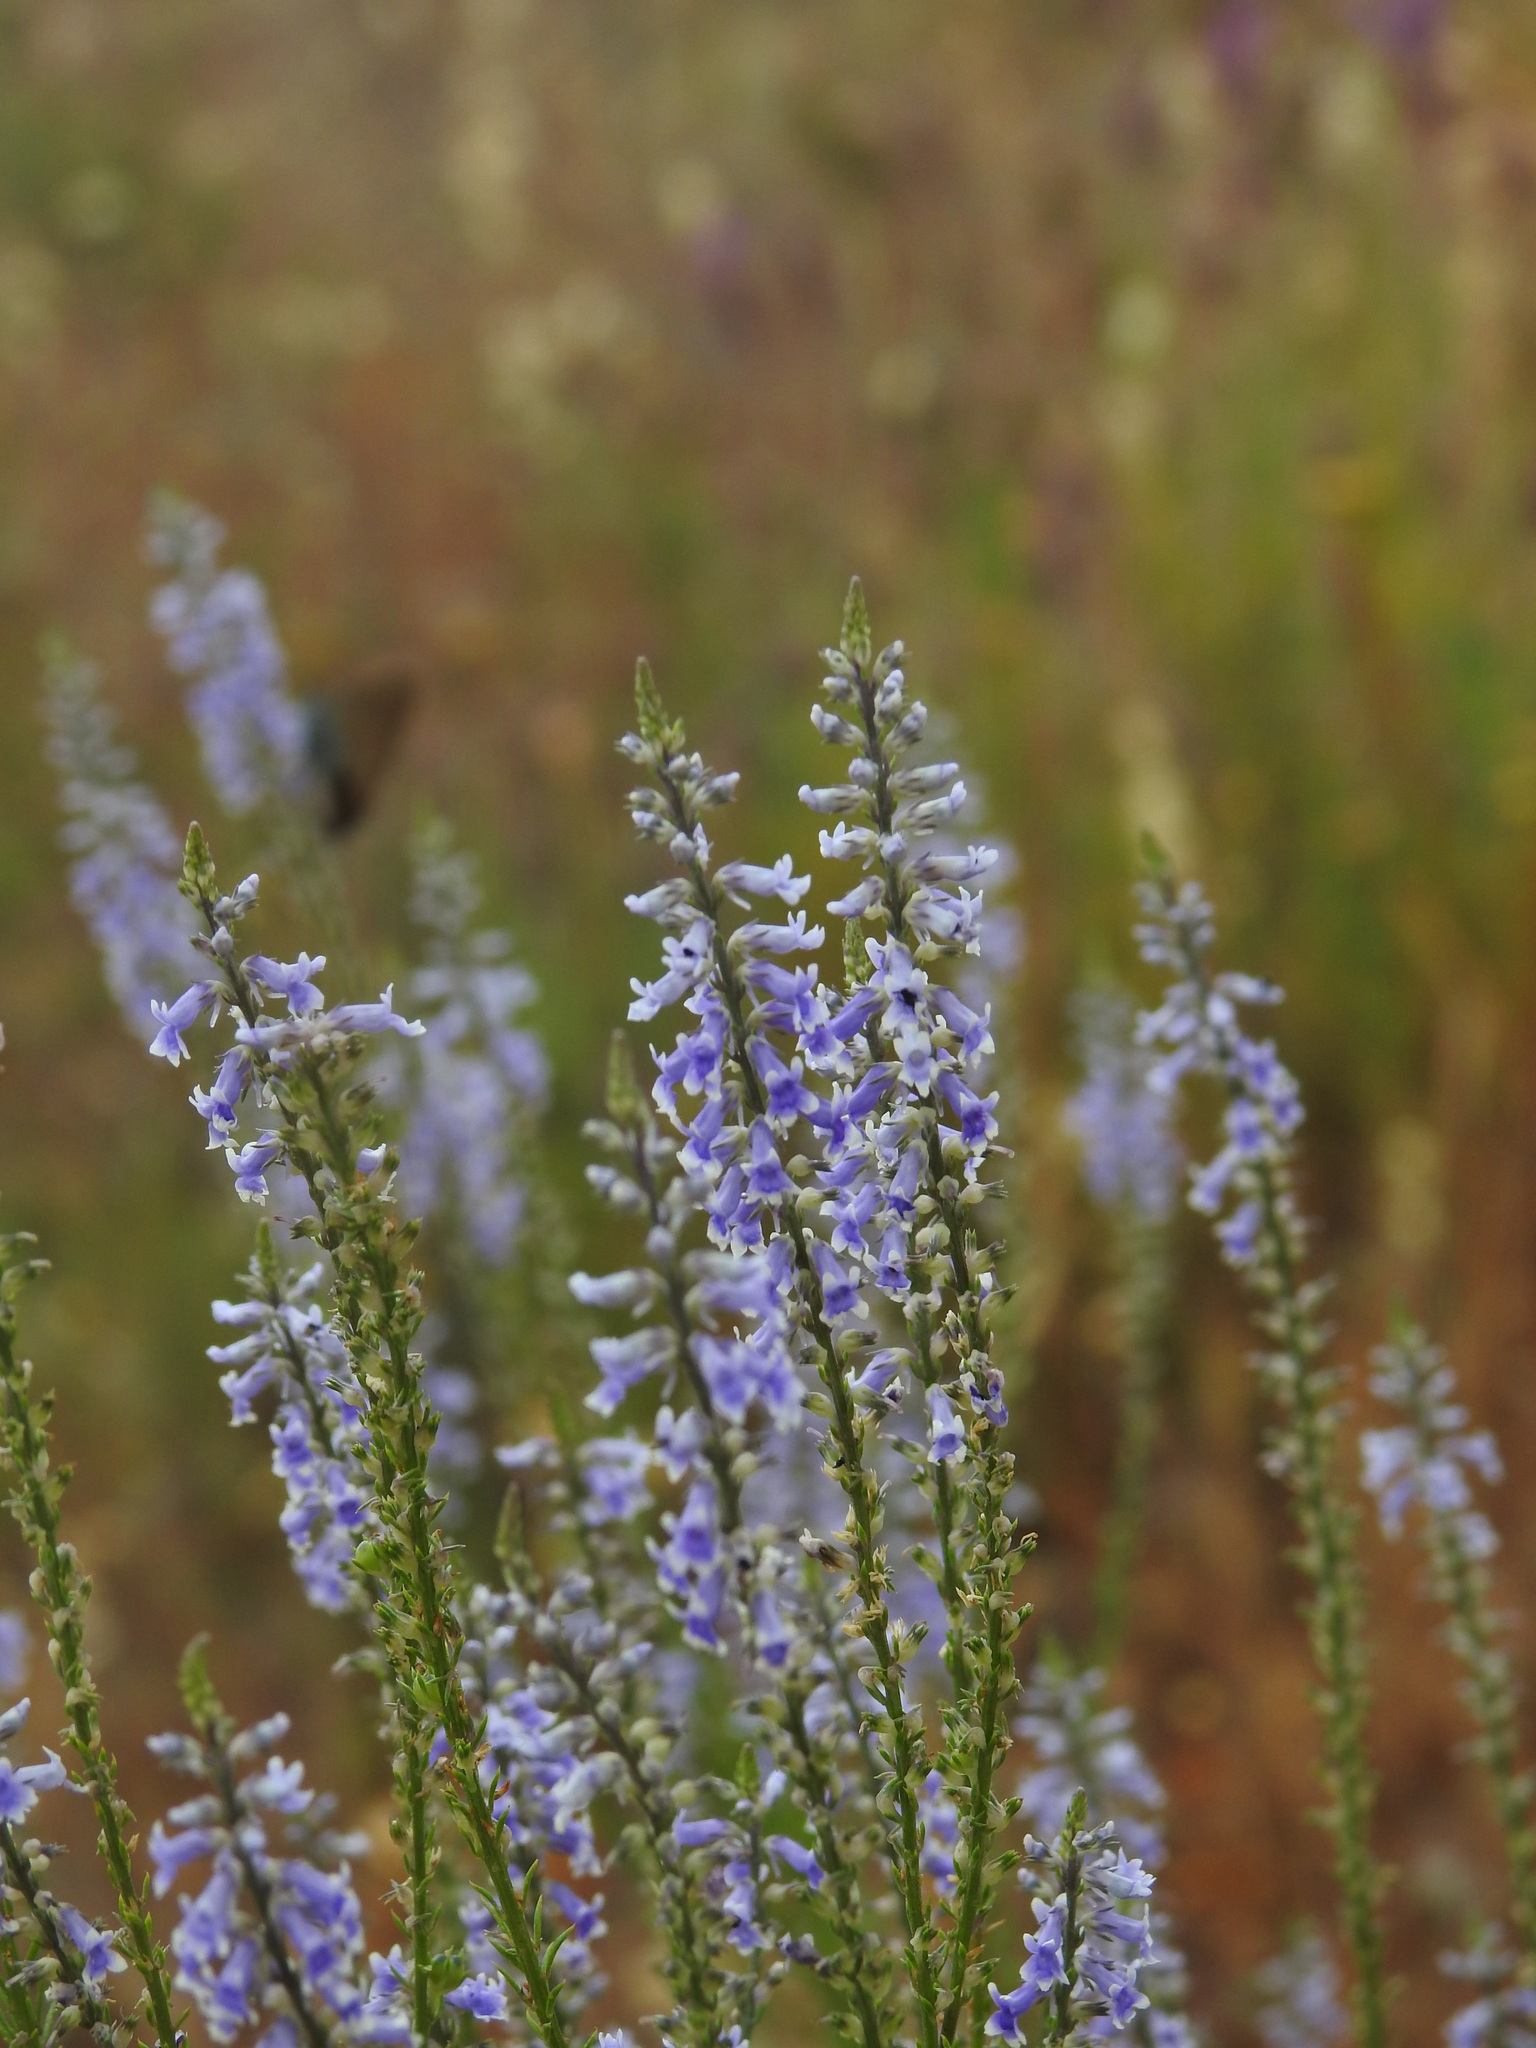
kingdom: Plantae
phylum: Tracheophyta
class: Magnoliopsida
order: Lamiales
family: Plantaginaceae
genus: Anarrhinum
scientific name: Anarrhinum bellidifolium
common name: Daisy-leaved toadflax
